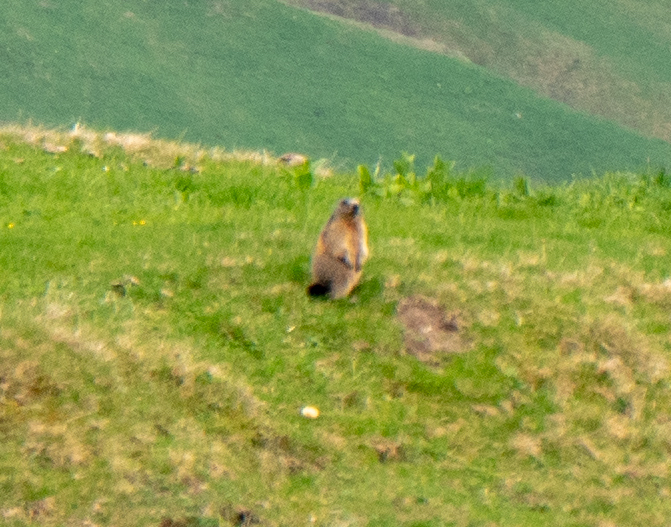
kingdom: Animalia
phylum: Chordata
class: Mammalia
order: Rodentia
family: Sciuridae
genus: Marmota
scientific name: Marmota marmota
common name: Alpine marmot
